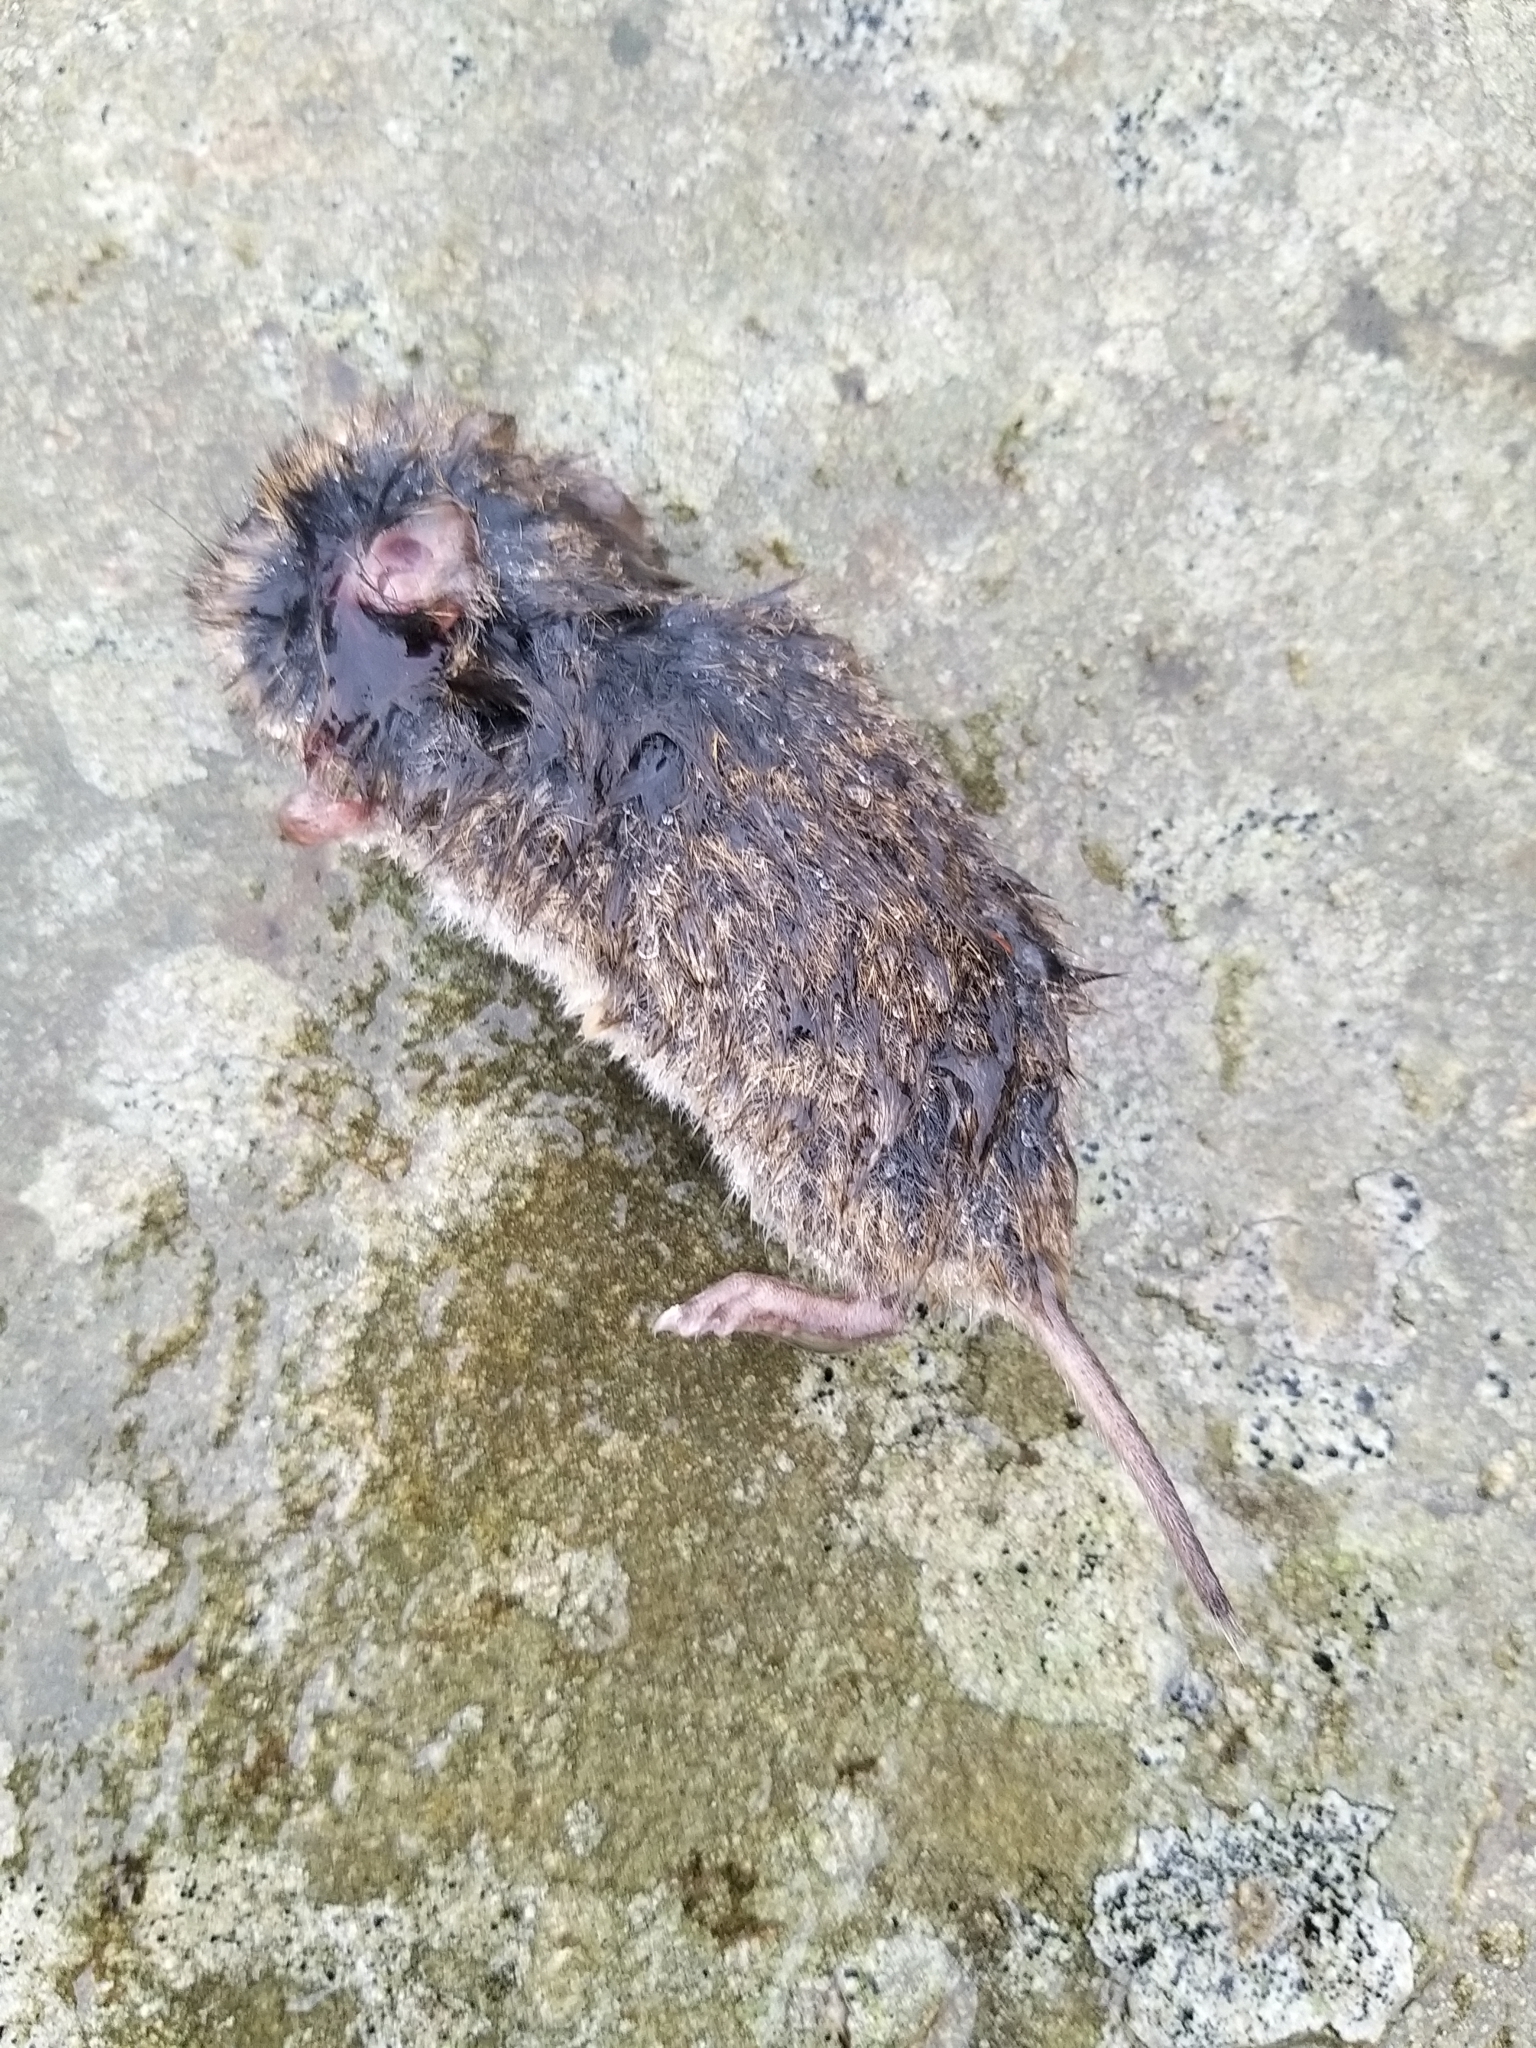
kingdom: Animalia
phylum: Chordata
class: Mammalia
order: Rodentia
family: Cricetidae
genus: Microtus
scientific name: Microtus agrestis
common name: Field vole
